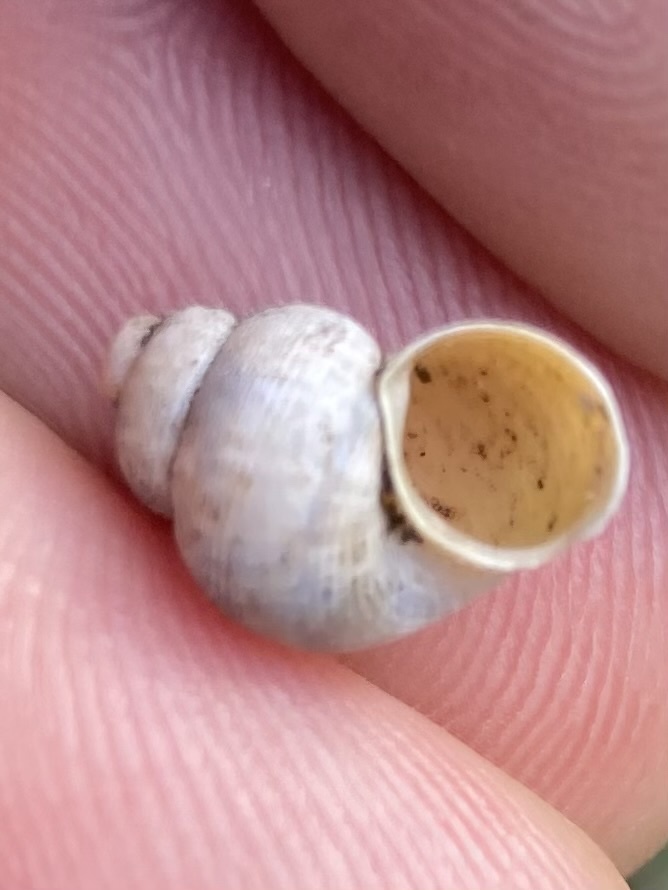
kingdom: Animalia
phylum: Mollusca
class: Gastropoda
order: Littorinimorpha
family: Pomatiidae
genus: Pomatias
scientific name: Pomatias elegans
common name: Red-mouthed snail
